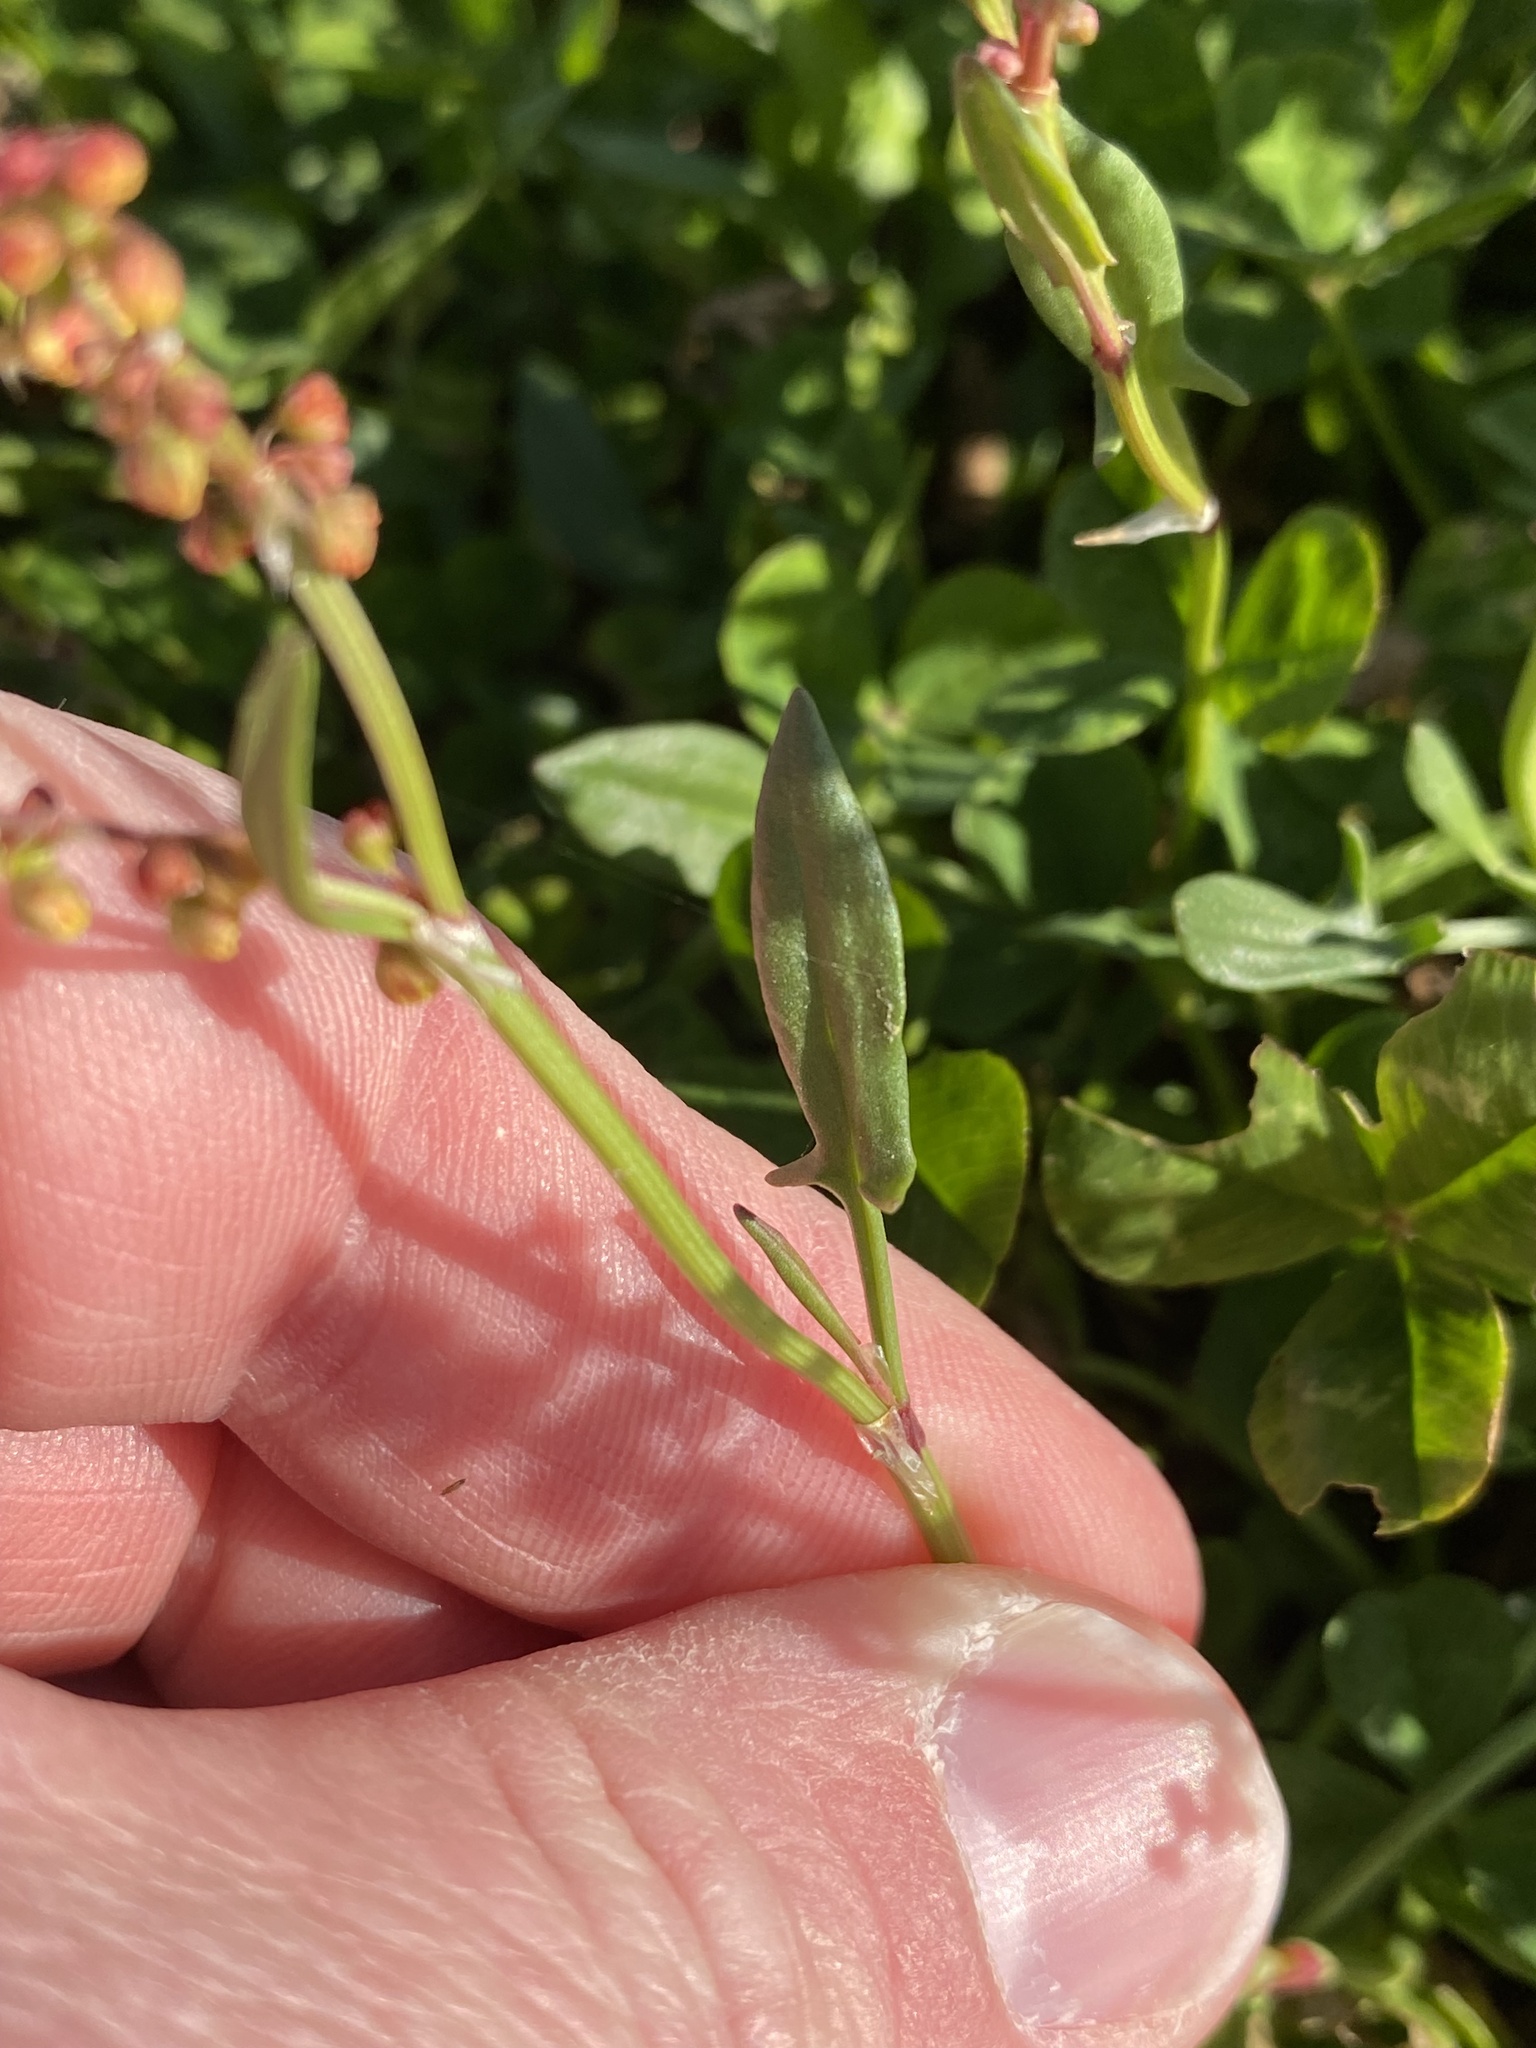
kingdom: Plantae
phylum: Tracheophyta
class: Magnoliopsida
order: Caryophyllales
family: Polygonaceae
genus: Rumex
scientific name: Rumex acetosella
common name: Common sheep sorrel
